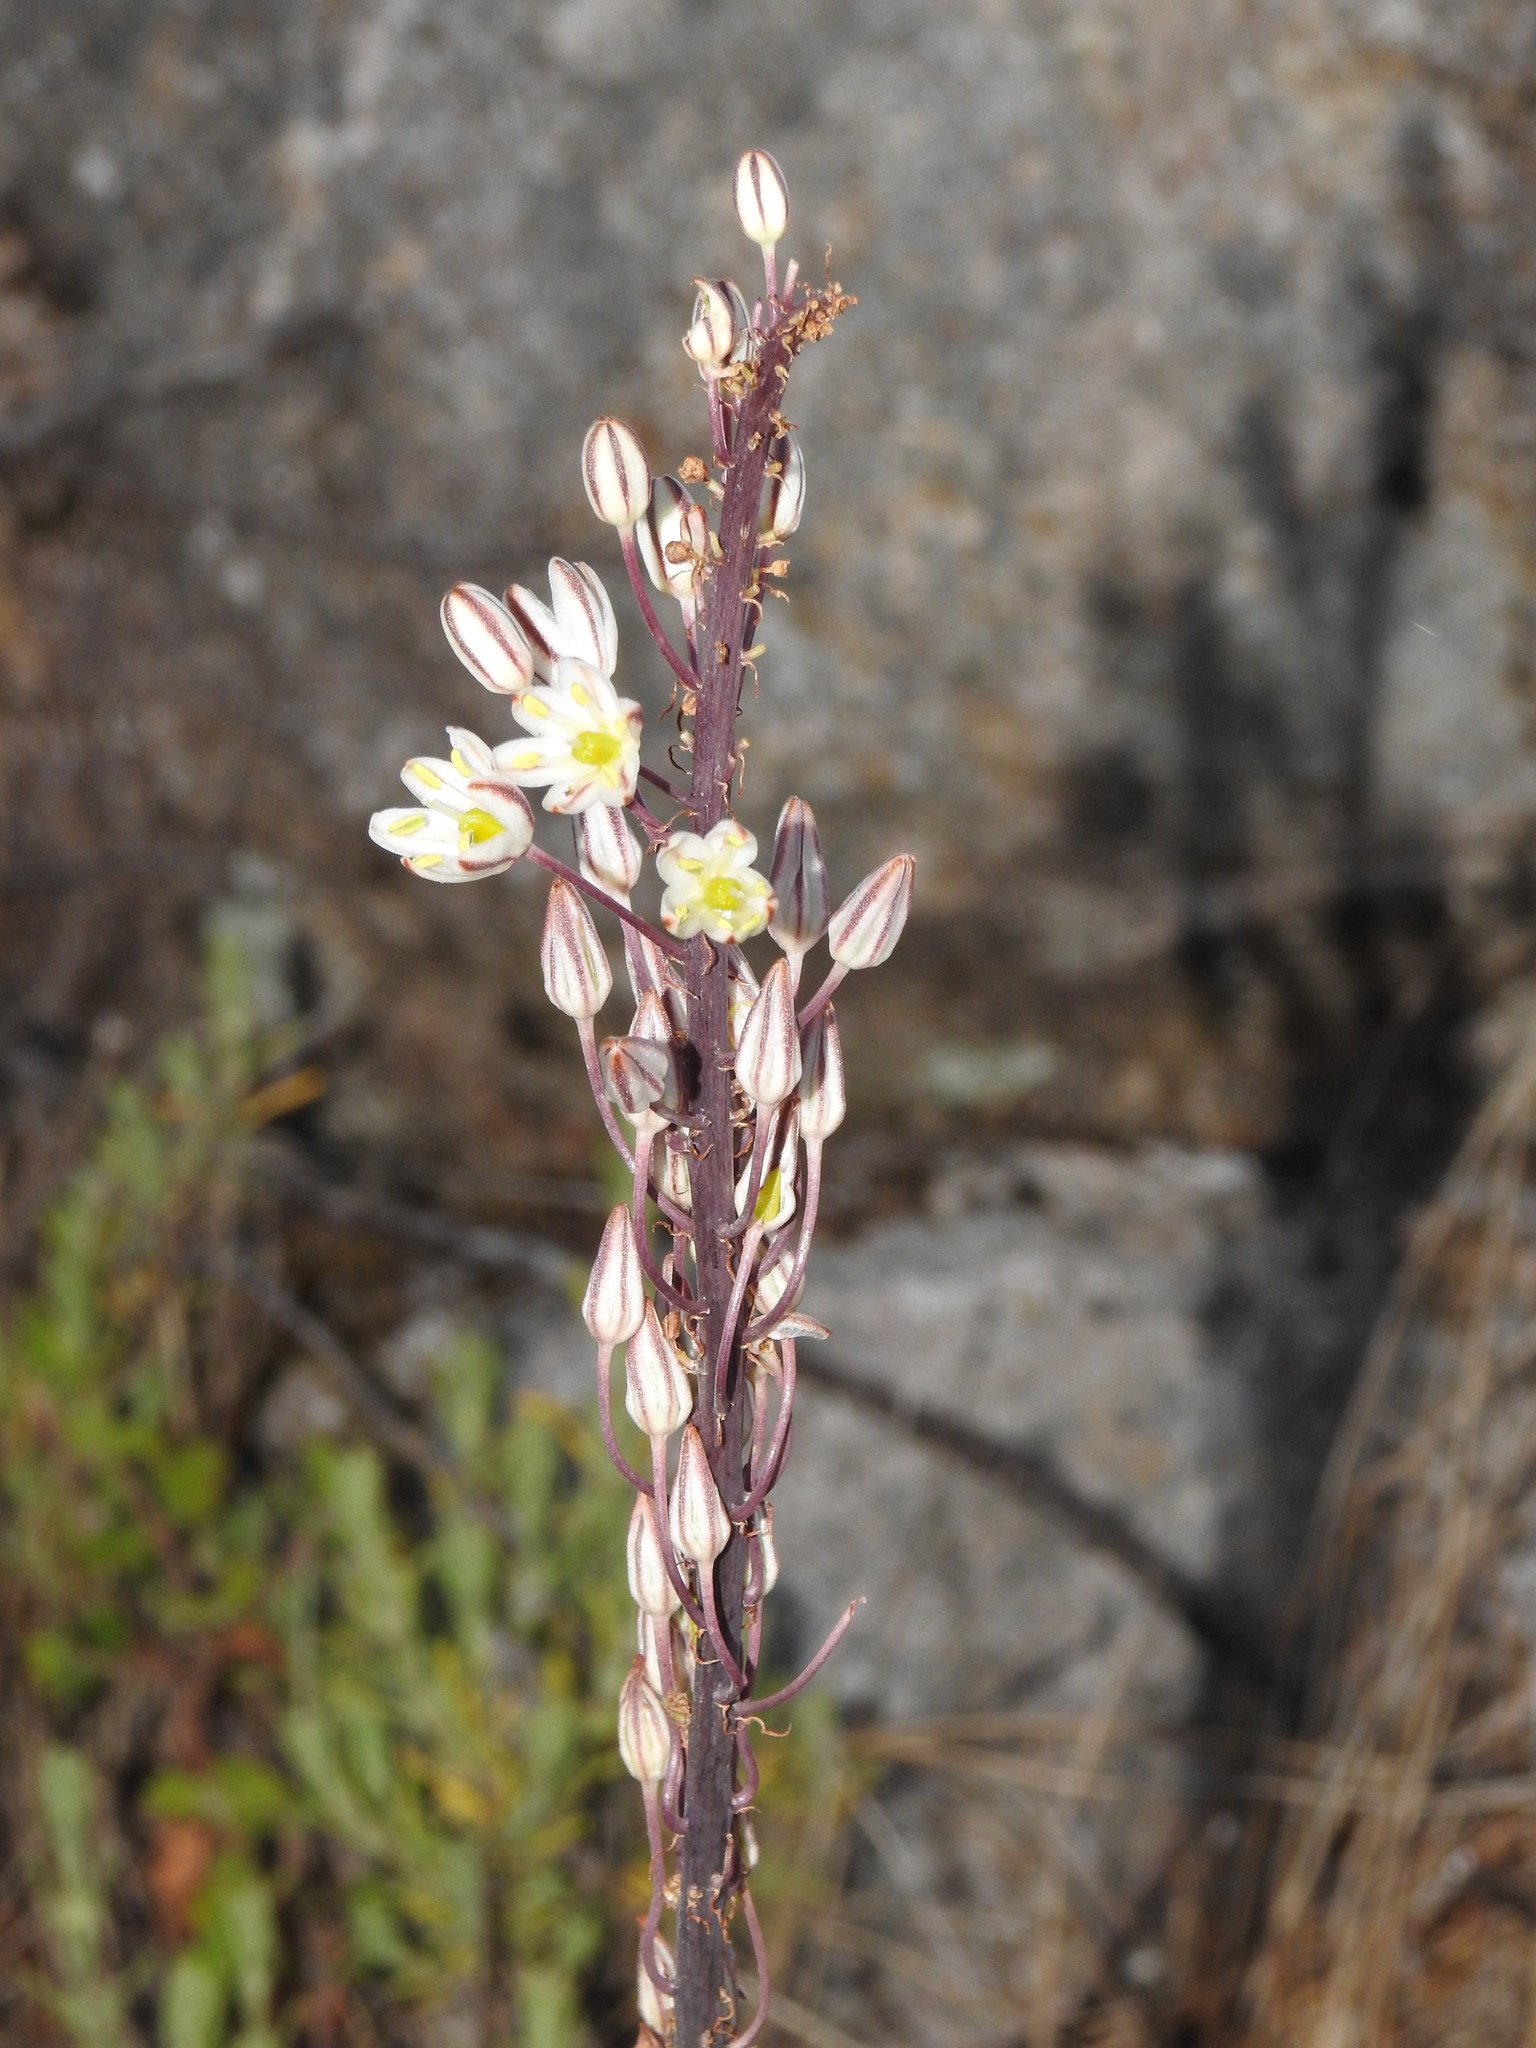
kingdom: Plantae
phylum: Tracheophyta
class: Liliopsida
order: Asparagales
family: Asparagaceae
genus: Drimia
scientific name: Drimia maritima
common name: Maritime squill
